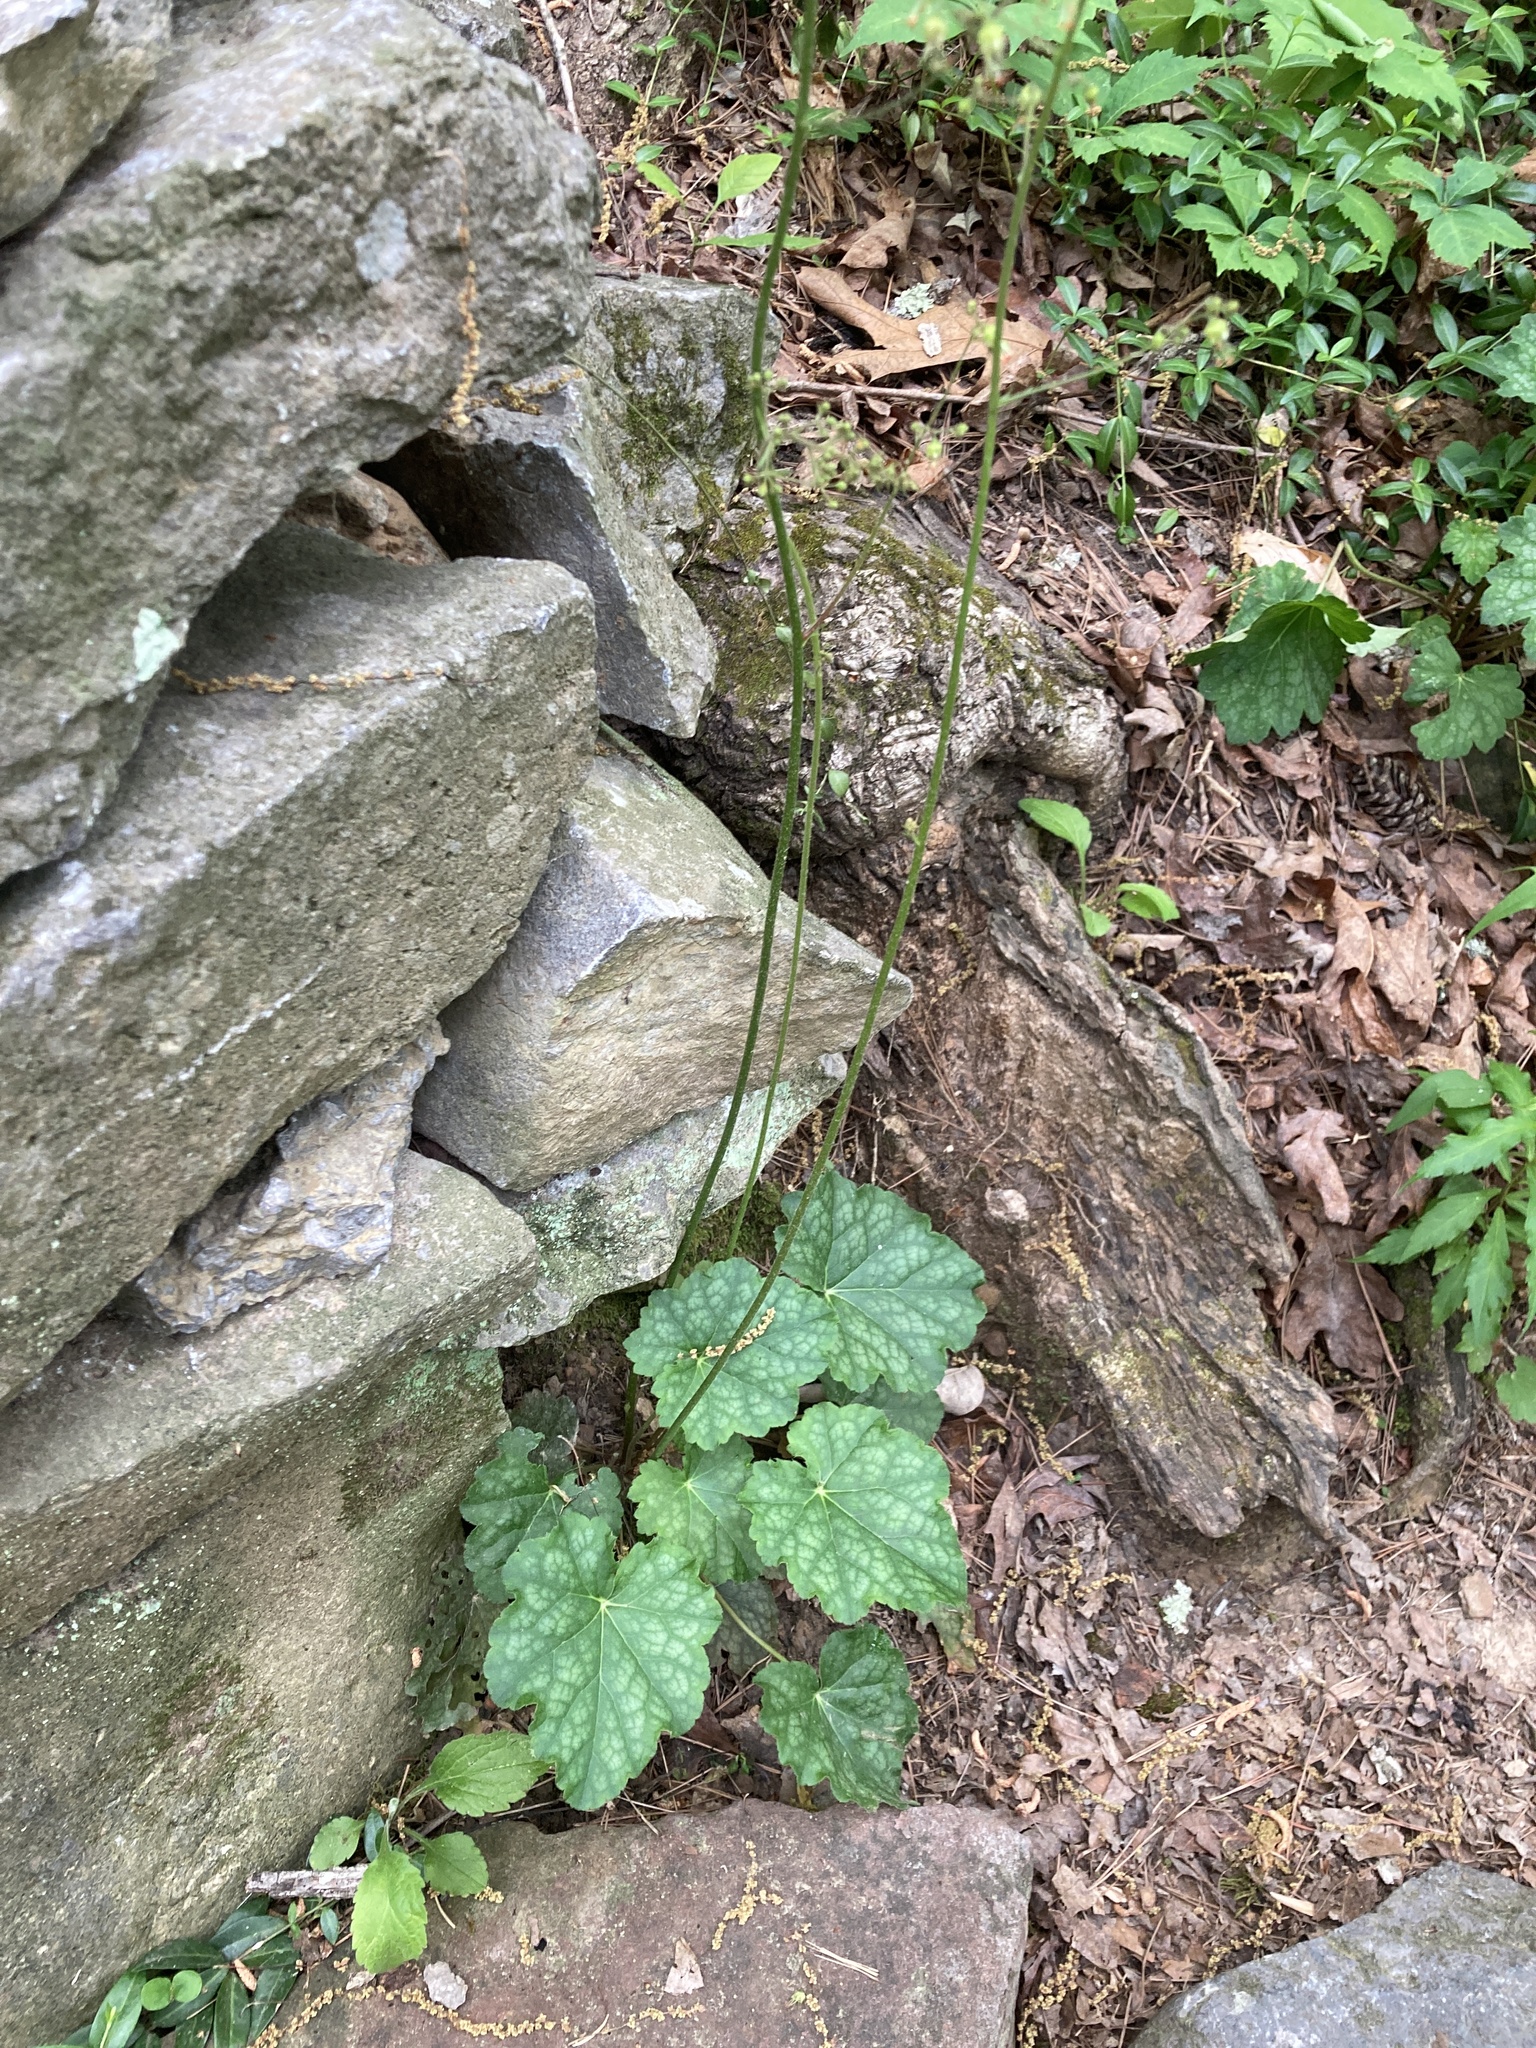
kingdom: Plantae
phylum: Tracheophyta
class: Magnoliopsida
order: Saxifragales
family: Saxifragaceae
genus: Heuchera
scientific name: Heuchera americana
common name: Alumroot
